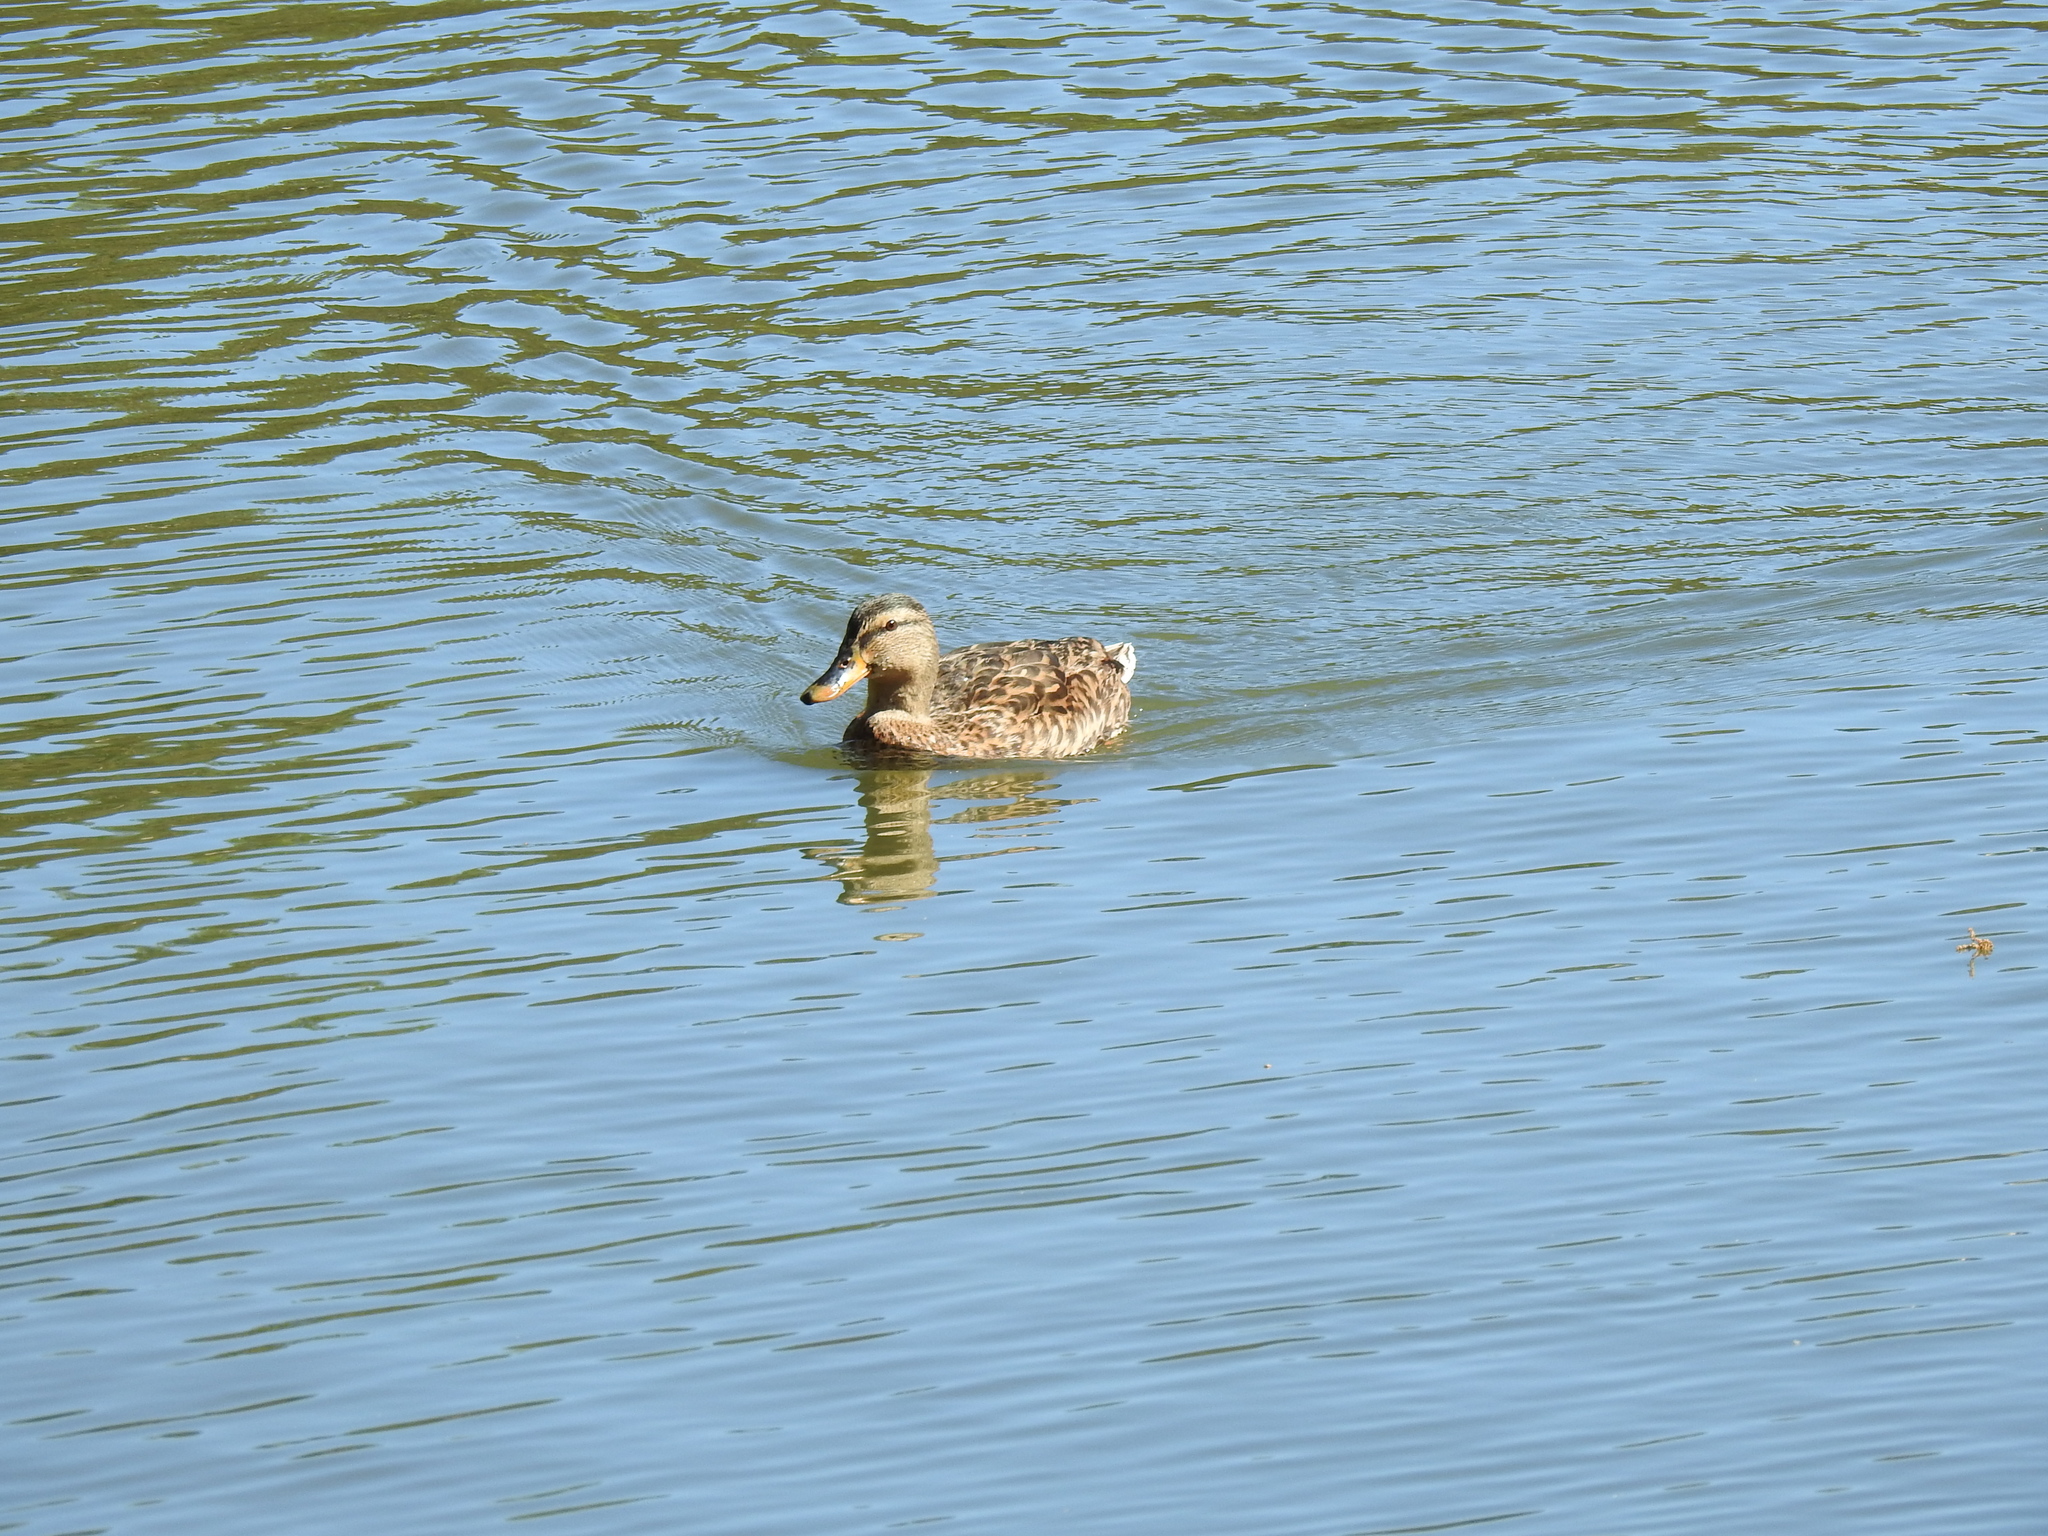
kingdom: Animalia
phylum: Chordata
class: Aves
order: Anseriformes
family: Anatidae
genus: Anas
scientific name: Anas platyrhynchos
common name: Mallard
